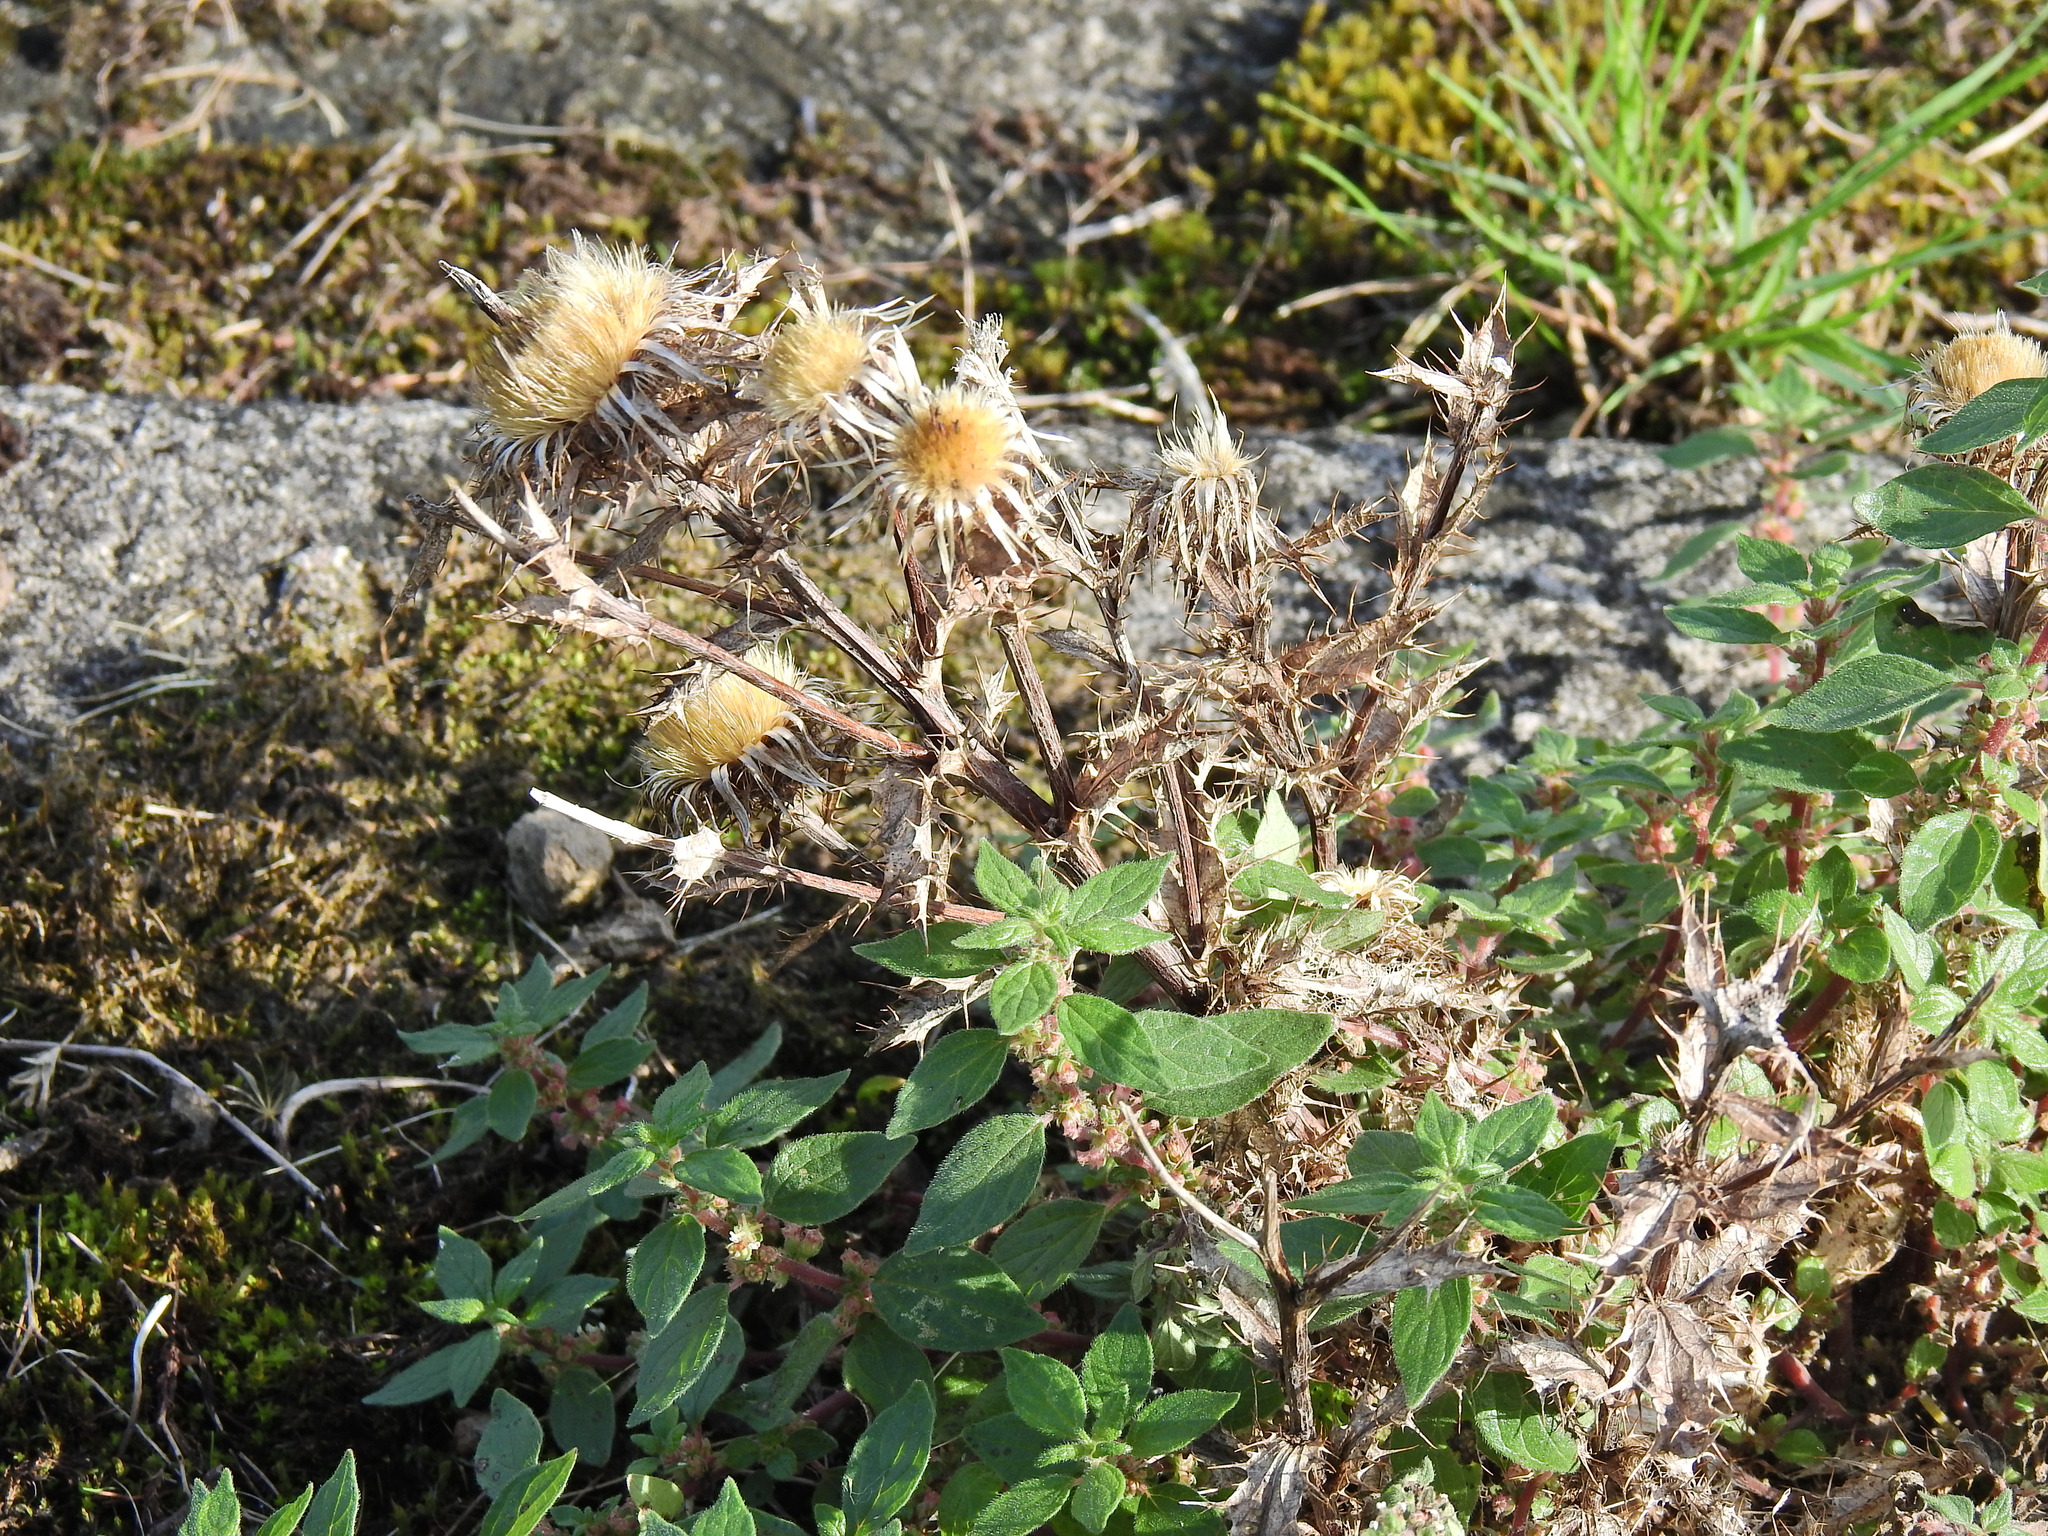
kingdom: Plantae
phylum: Tracheophyta
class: Magnoliopsida
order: Asterales
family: Asteraceae
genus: Carlina
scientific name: Carlina vulgaris
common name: Carline thistle
